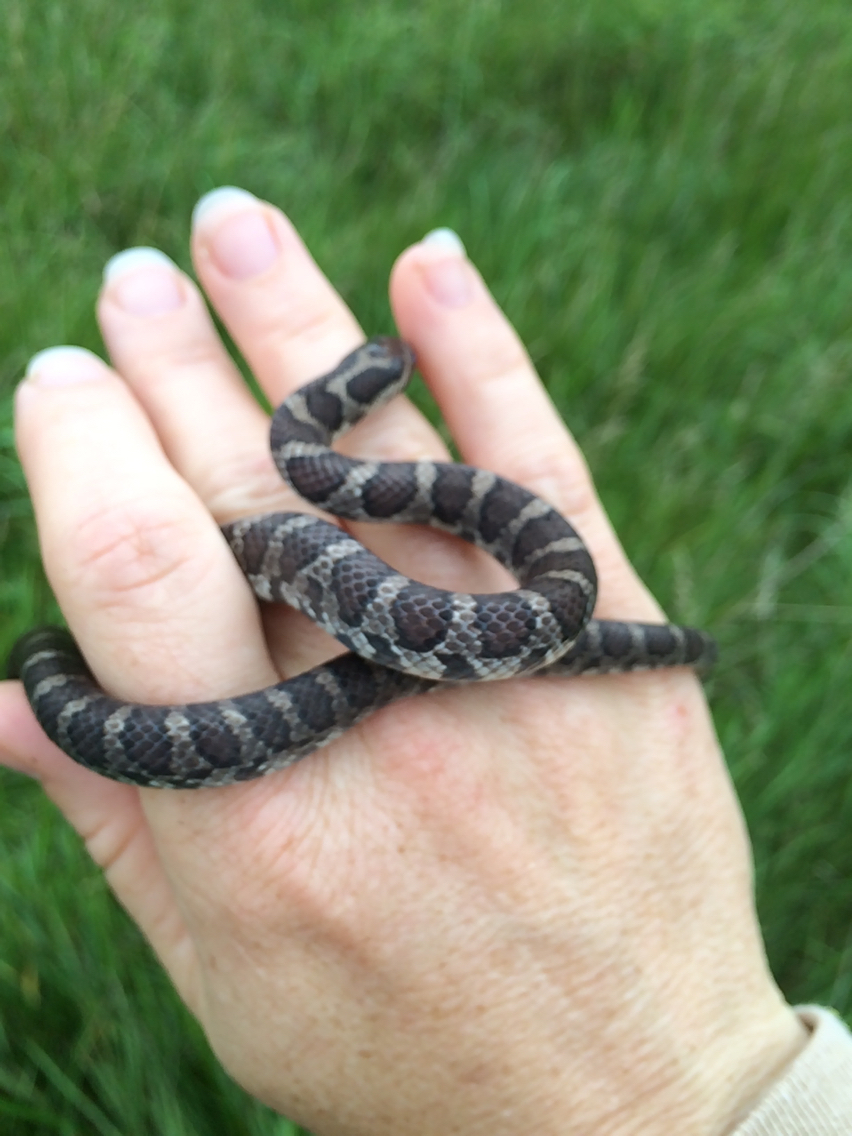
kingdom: Animalia
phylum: Chordata
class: Squamata
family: Colubridae
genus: Lampropeltis
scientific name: Lampropeltis triangulum
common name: Eastern milksnake
